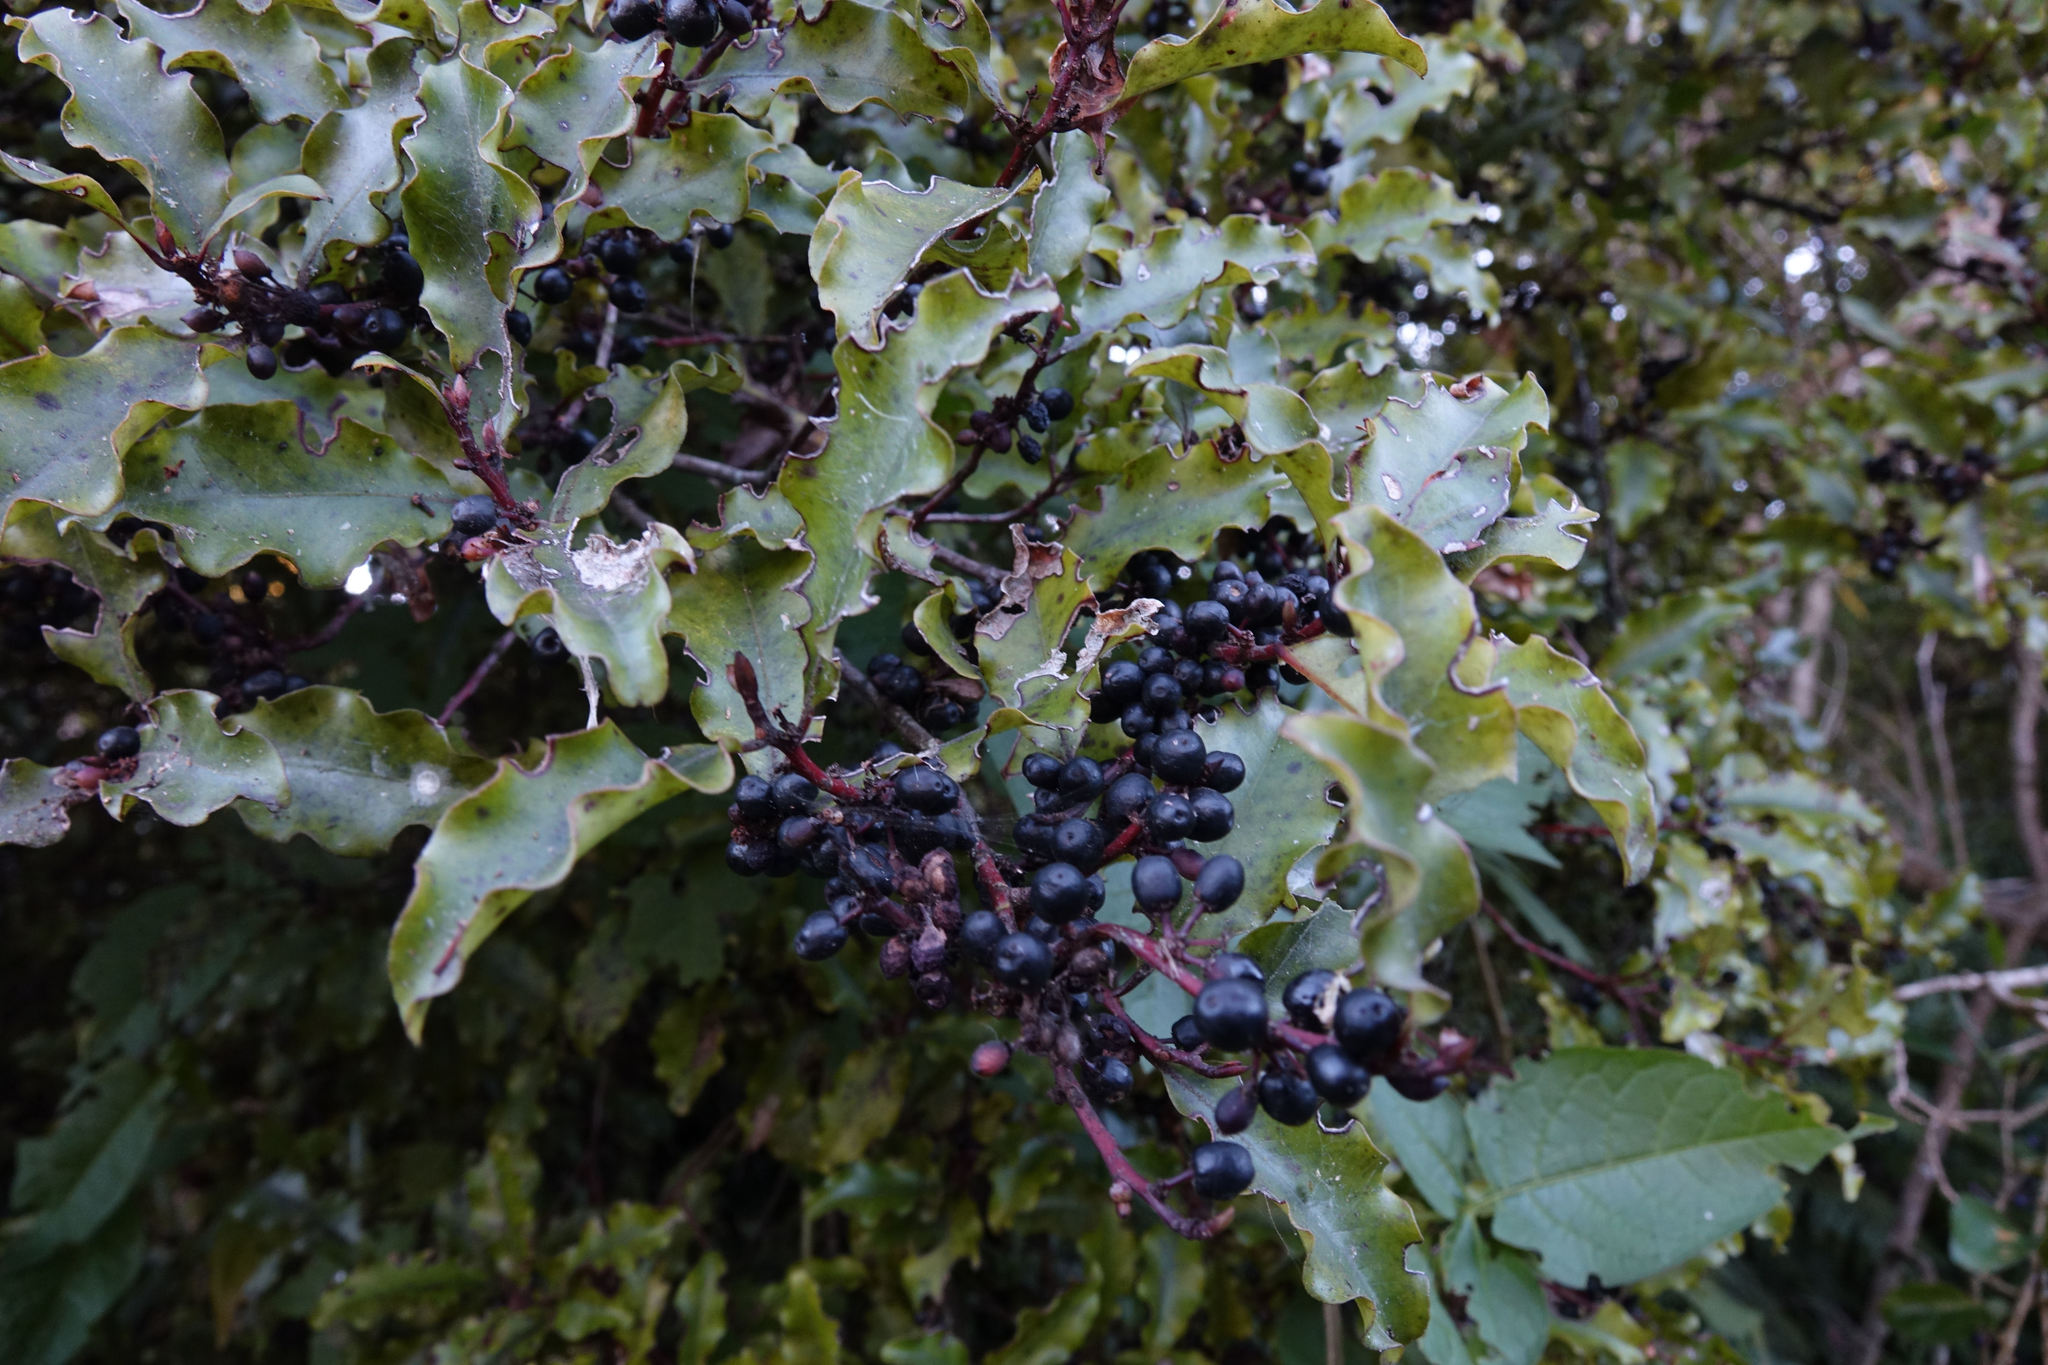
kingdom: Plantae
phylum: Tracheophyta
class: Magnoliopsida
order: Ericales
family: Primulaceae
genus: Myrsine
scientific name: Myrsine australis
